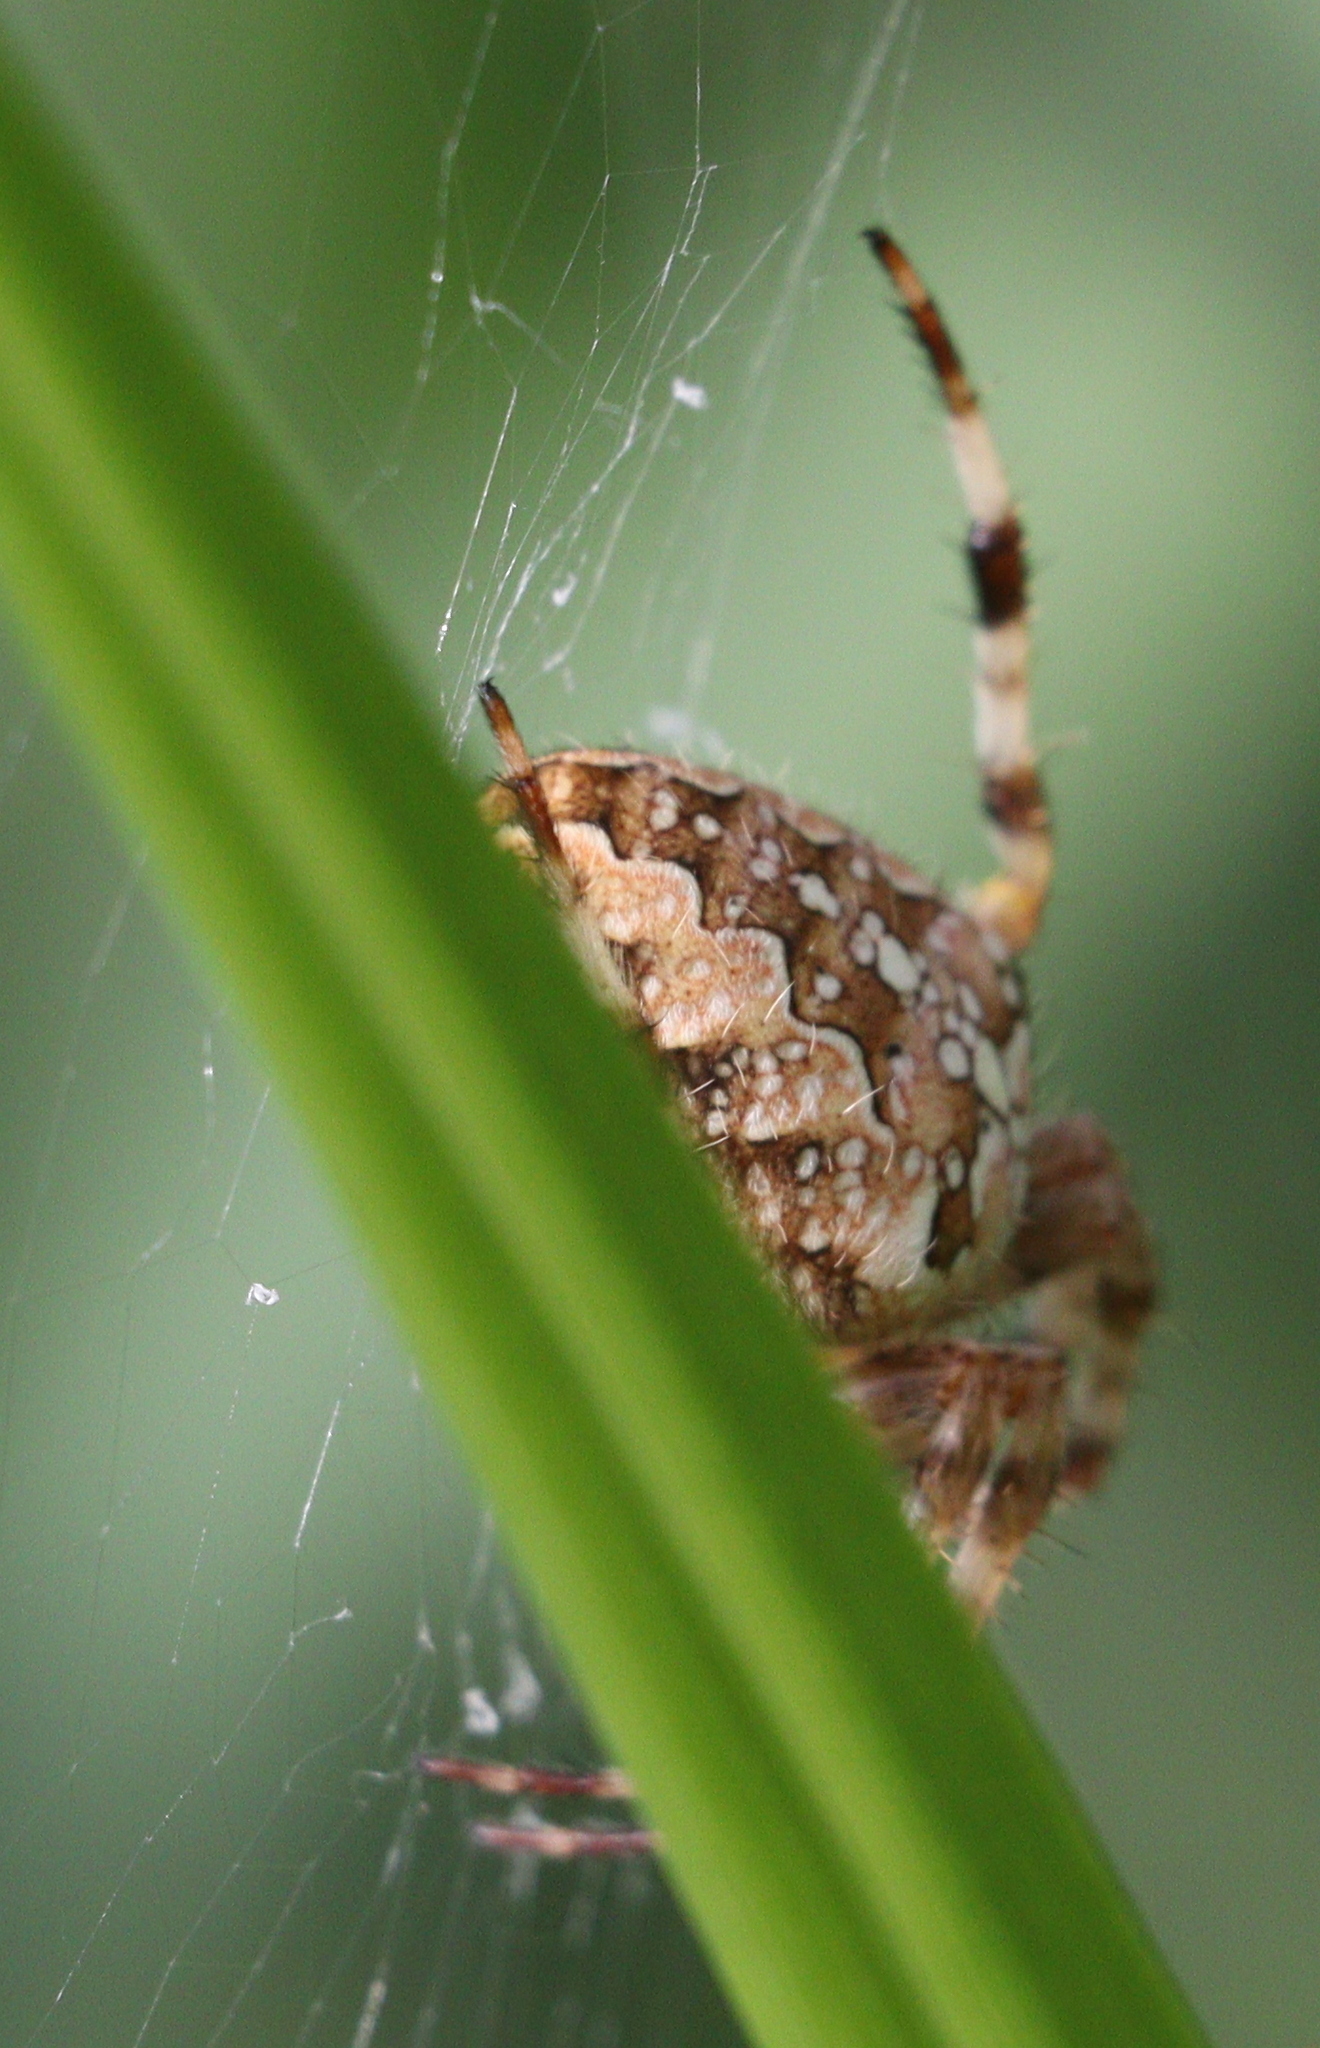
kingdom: Animalia
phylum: Arthropoda
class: Arachnida
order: Araneae
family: Araneidae
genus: Araneus
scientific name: Araneus diadematus
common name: Cross orbweaver
